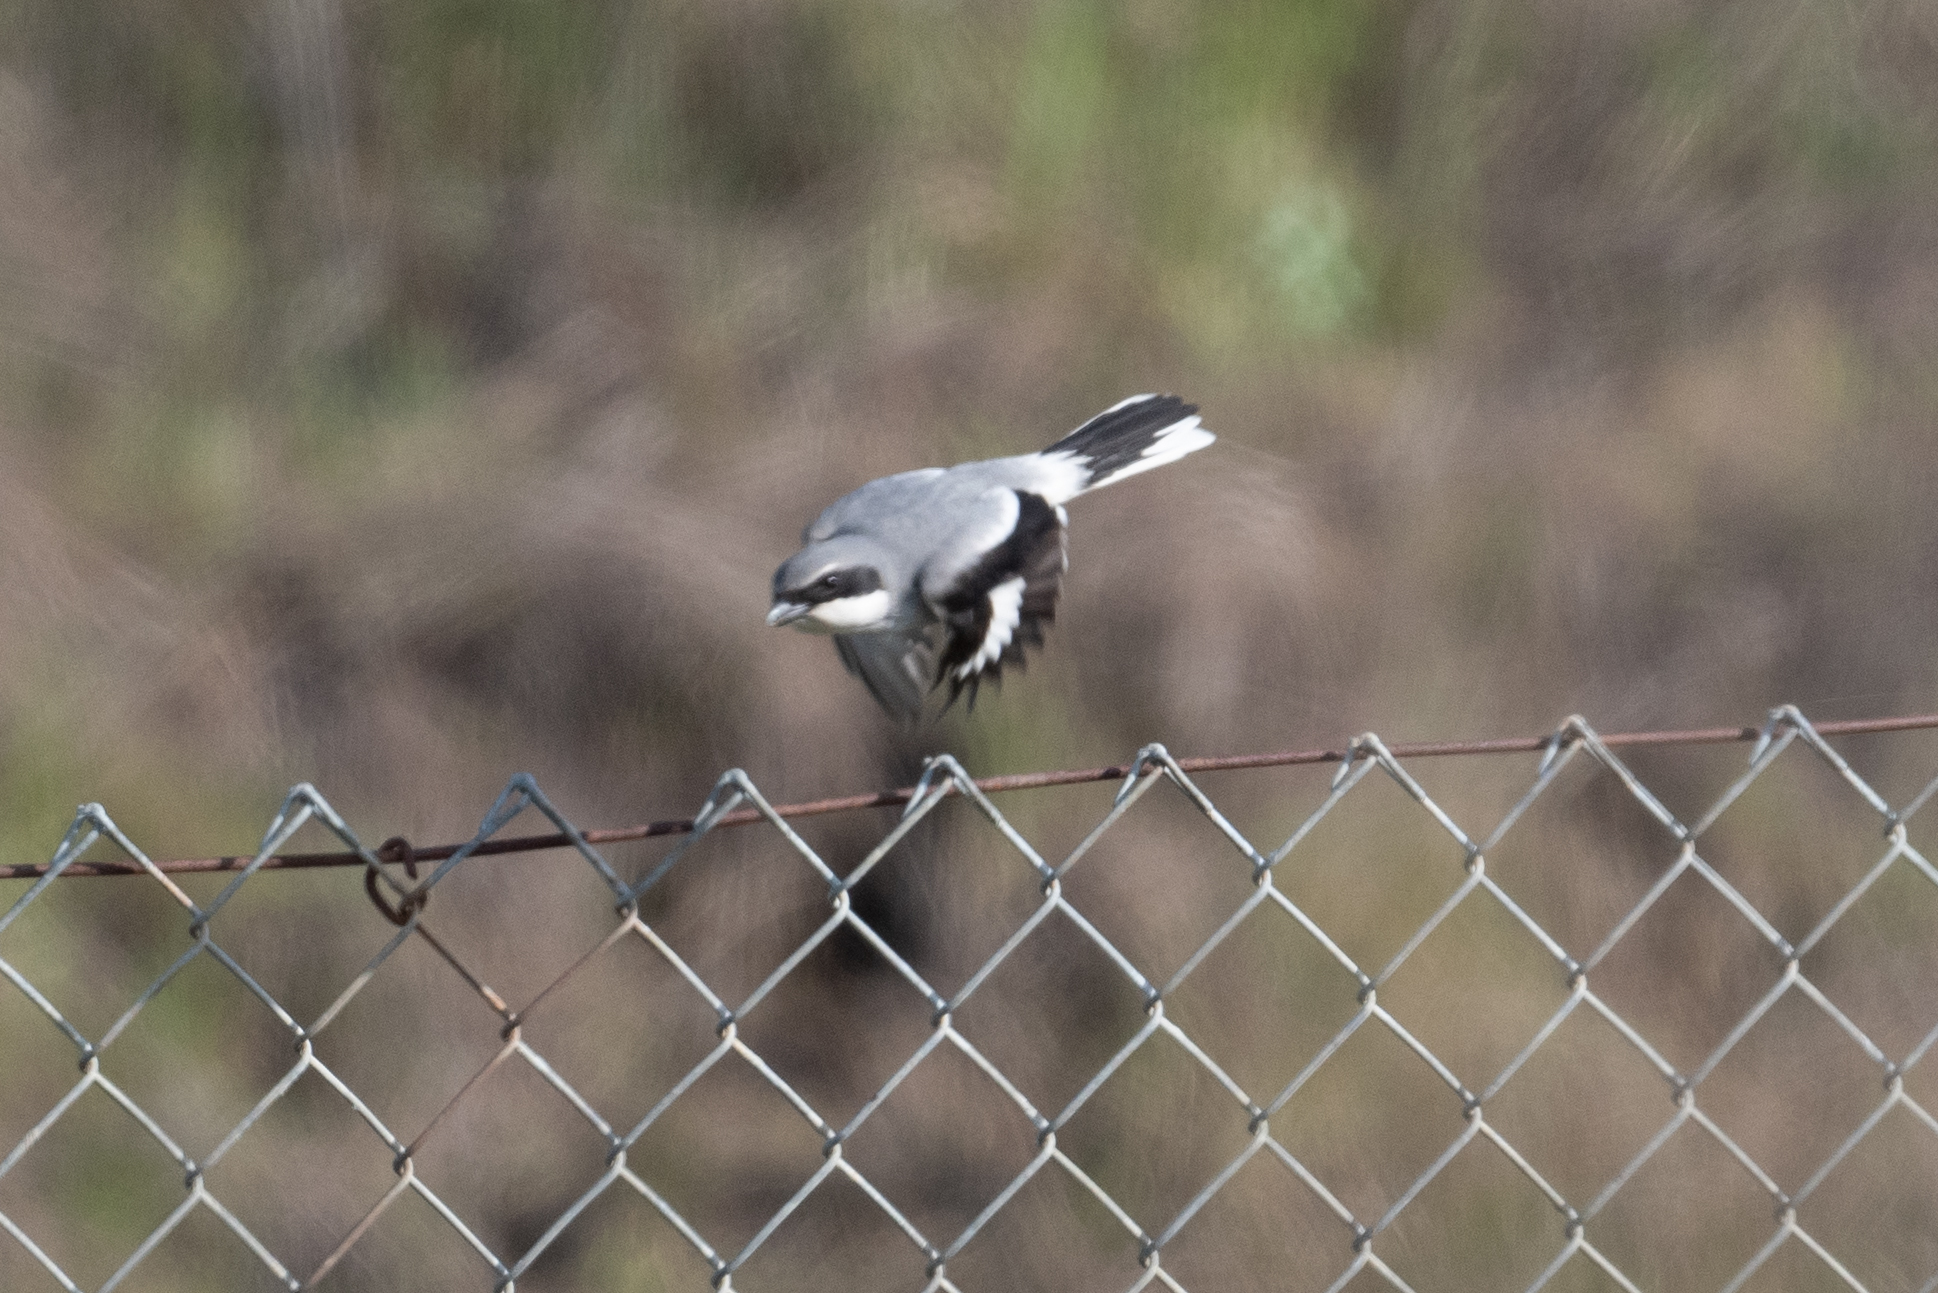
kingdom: Animalia
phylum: Chordata
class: Aves
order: Passeriformes
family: Laniidae
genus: Lanius
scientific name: Lanius ludovicianus
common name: Loggerhead shrike
